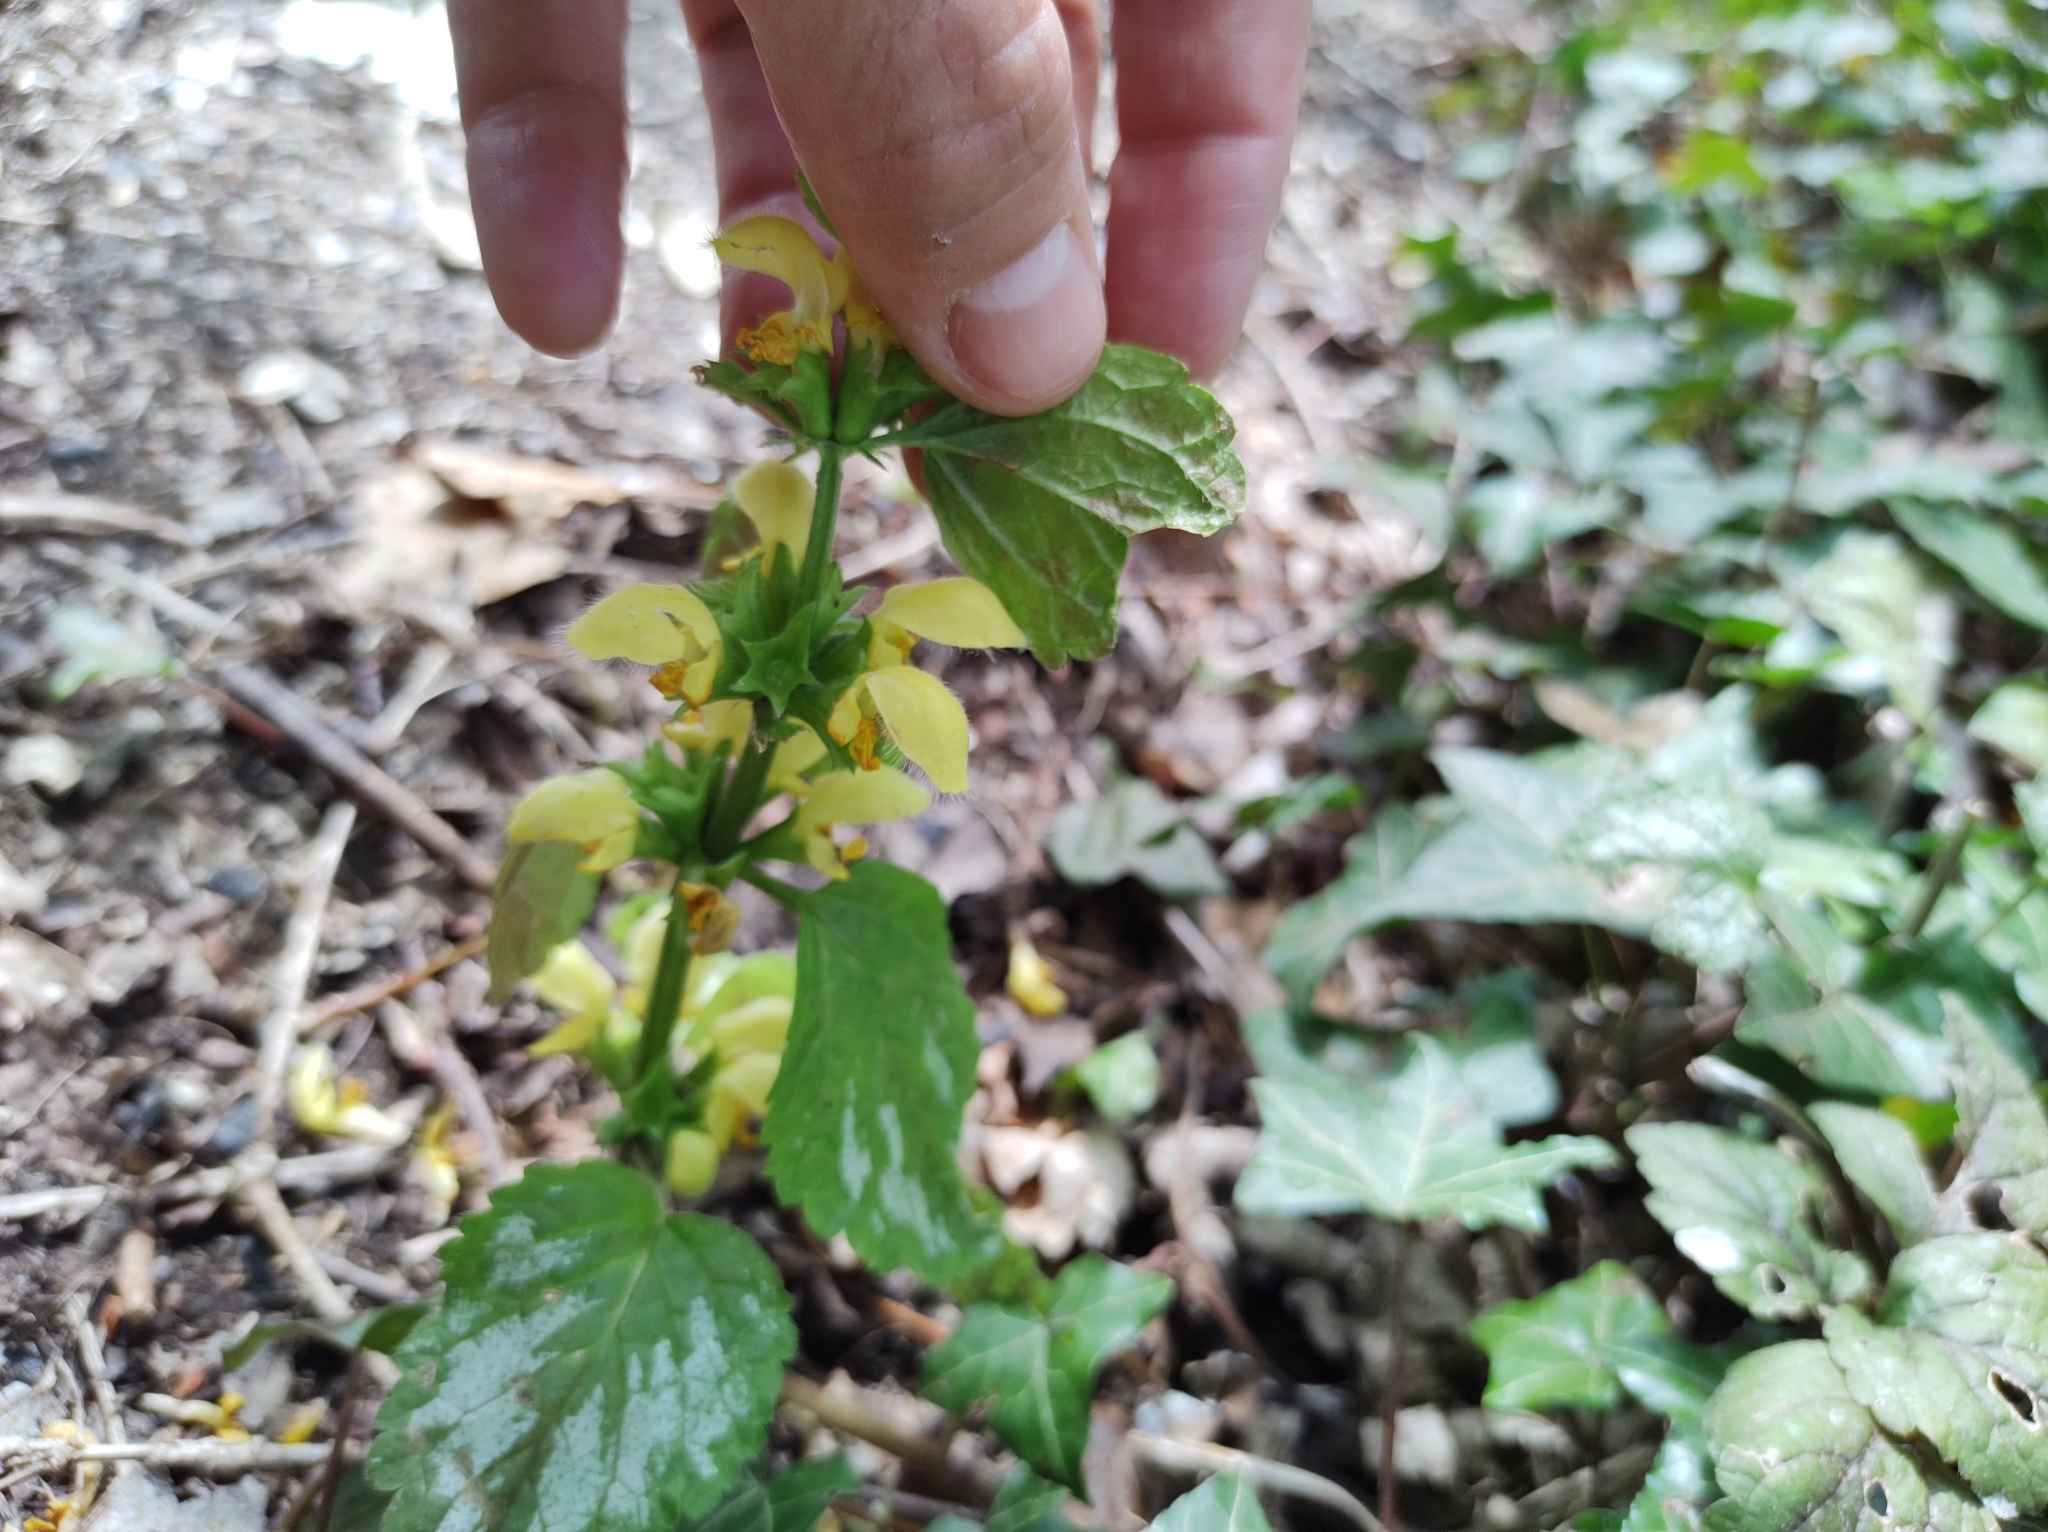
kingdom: Plantae
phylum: Tracheophyta
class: Magnoliopsida
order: Lamiales
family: Lamiaceae
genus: Lamium
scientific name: Lamium galeobdolon
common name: Yellow archangel
